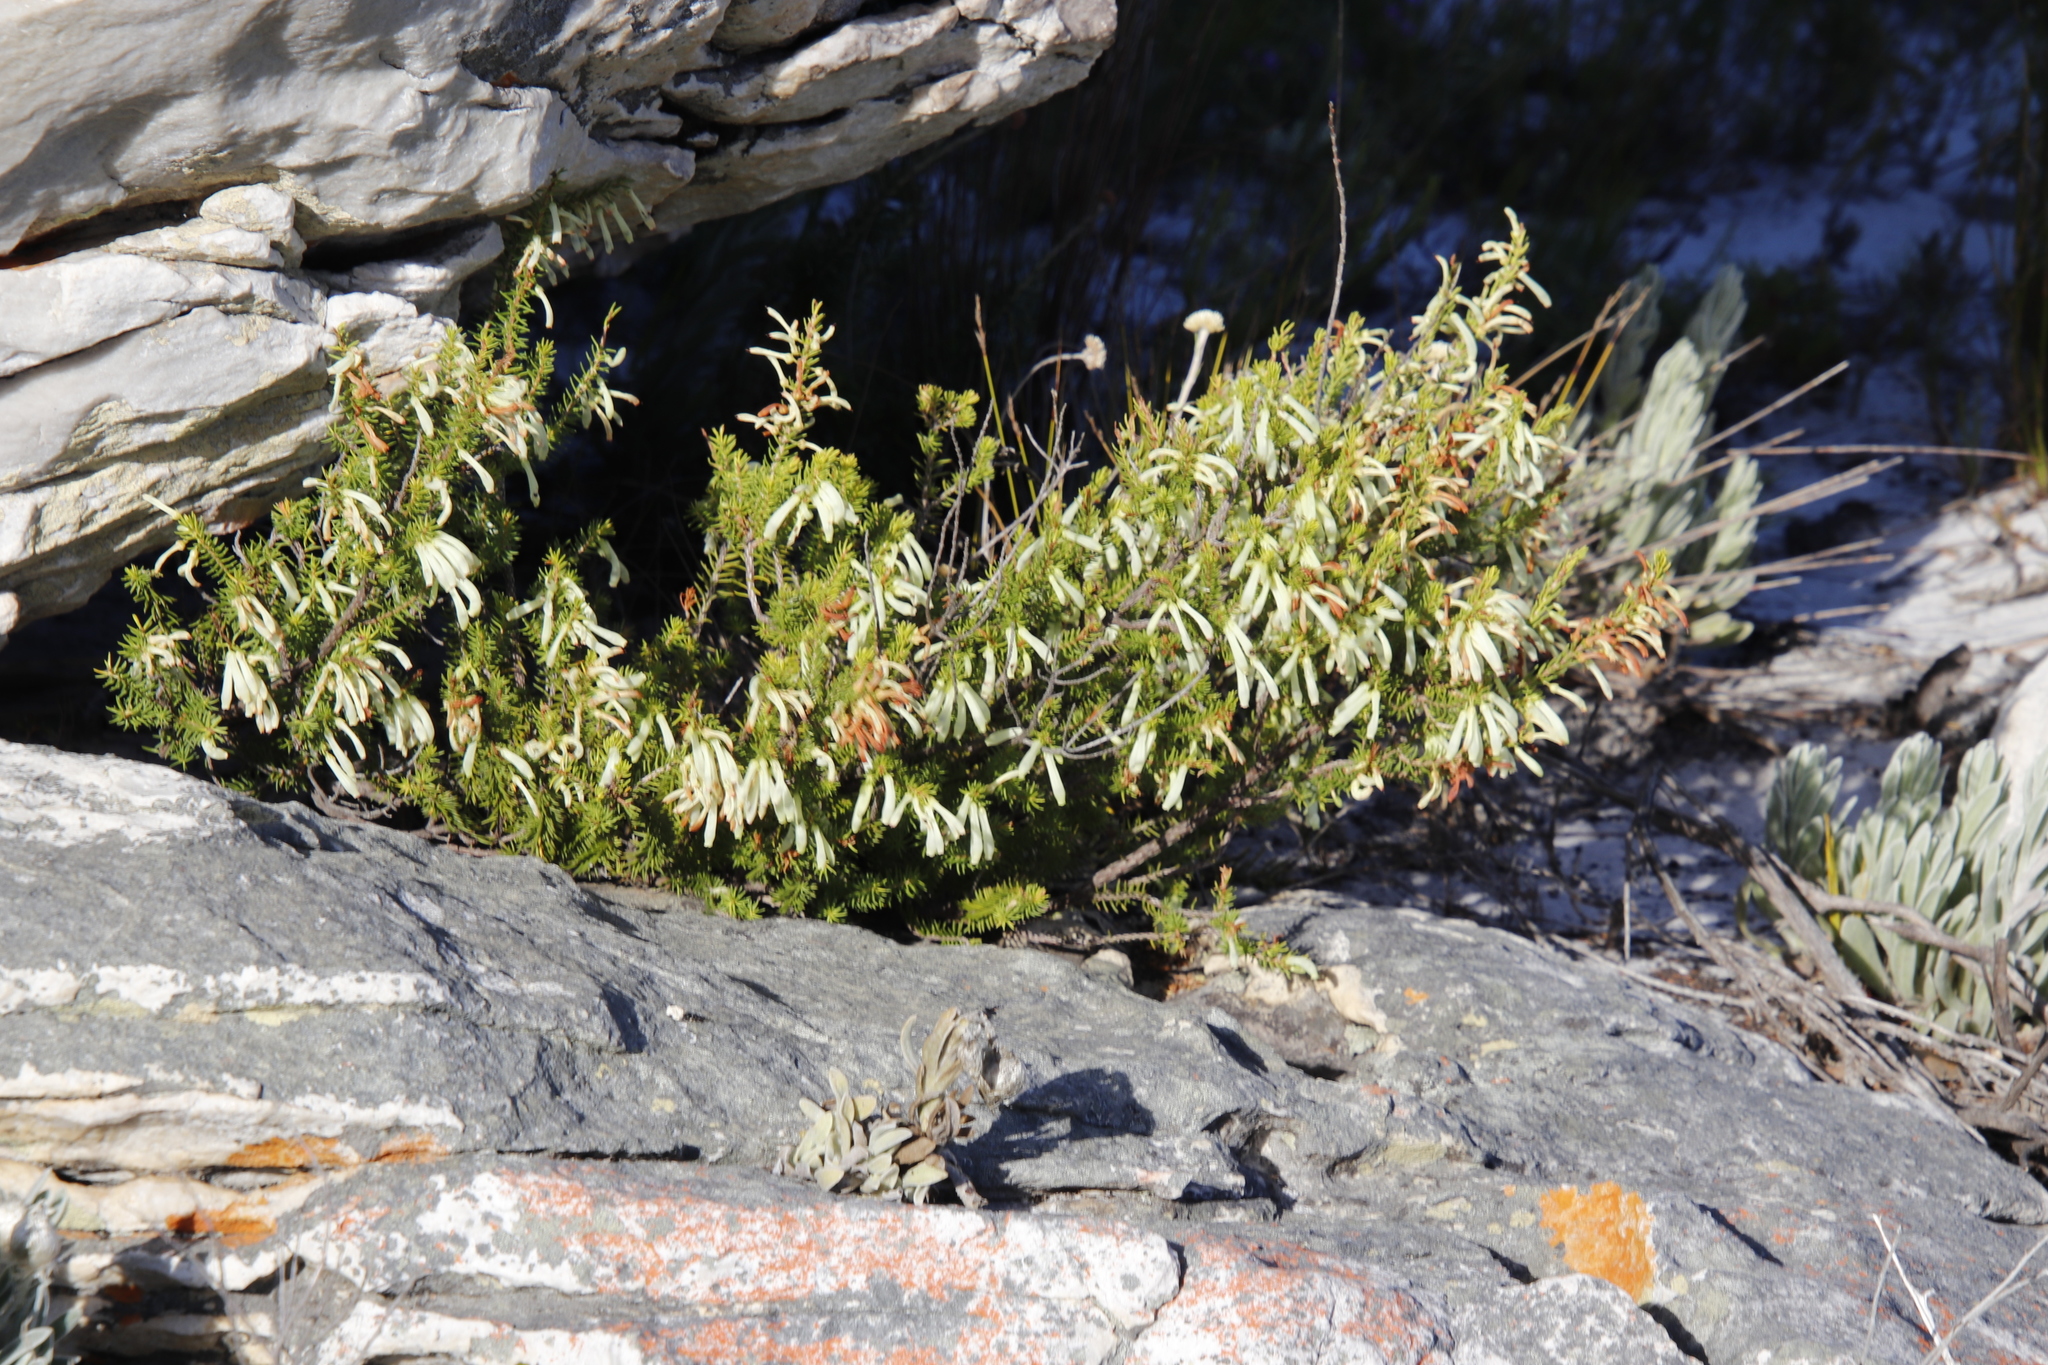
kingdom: Plantae
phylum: Tracheophyta
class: Magnoliopsida
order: Ericales
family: Ericaceae
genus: Erica
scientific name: Erica mammosa
